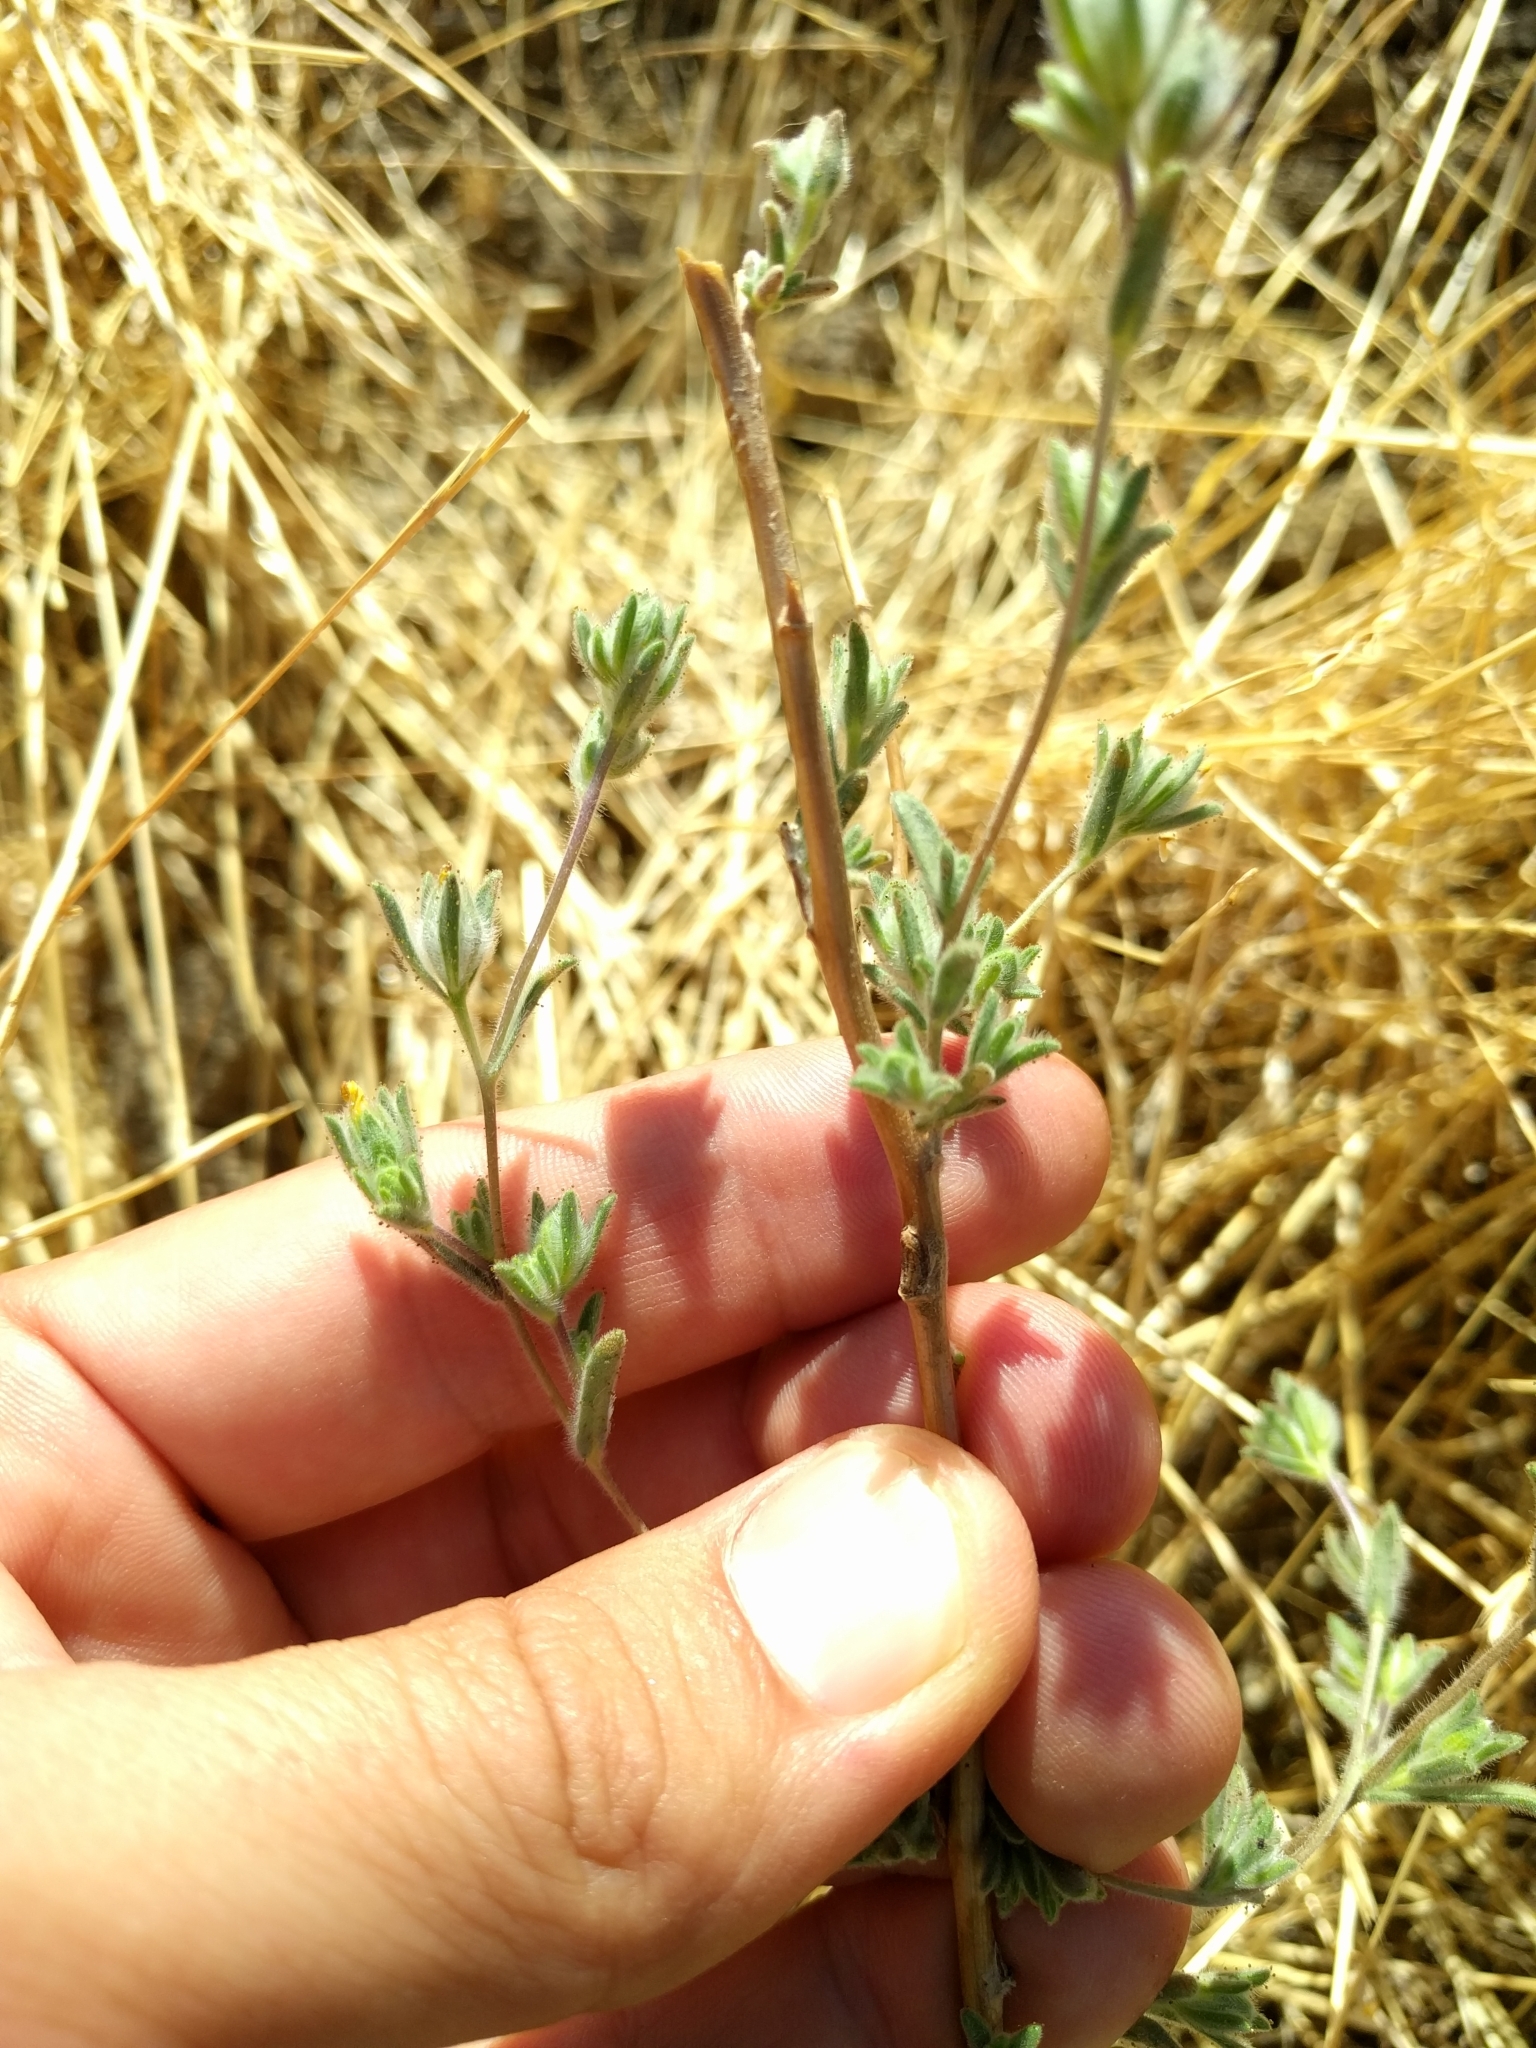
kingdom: Plantae
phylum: Tracheophyta
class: Magnoliopsida
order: Asterales
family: Asteraceae
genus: Lagophylla
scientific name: Lagophylla ramosissima
